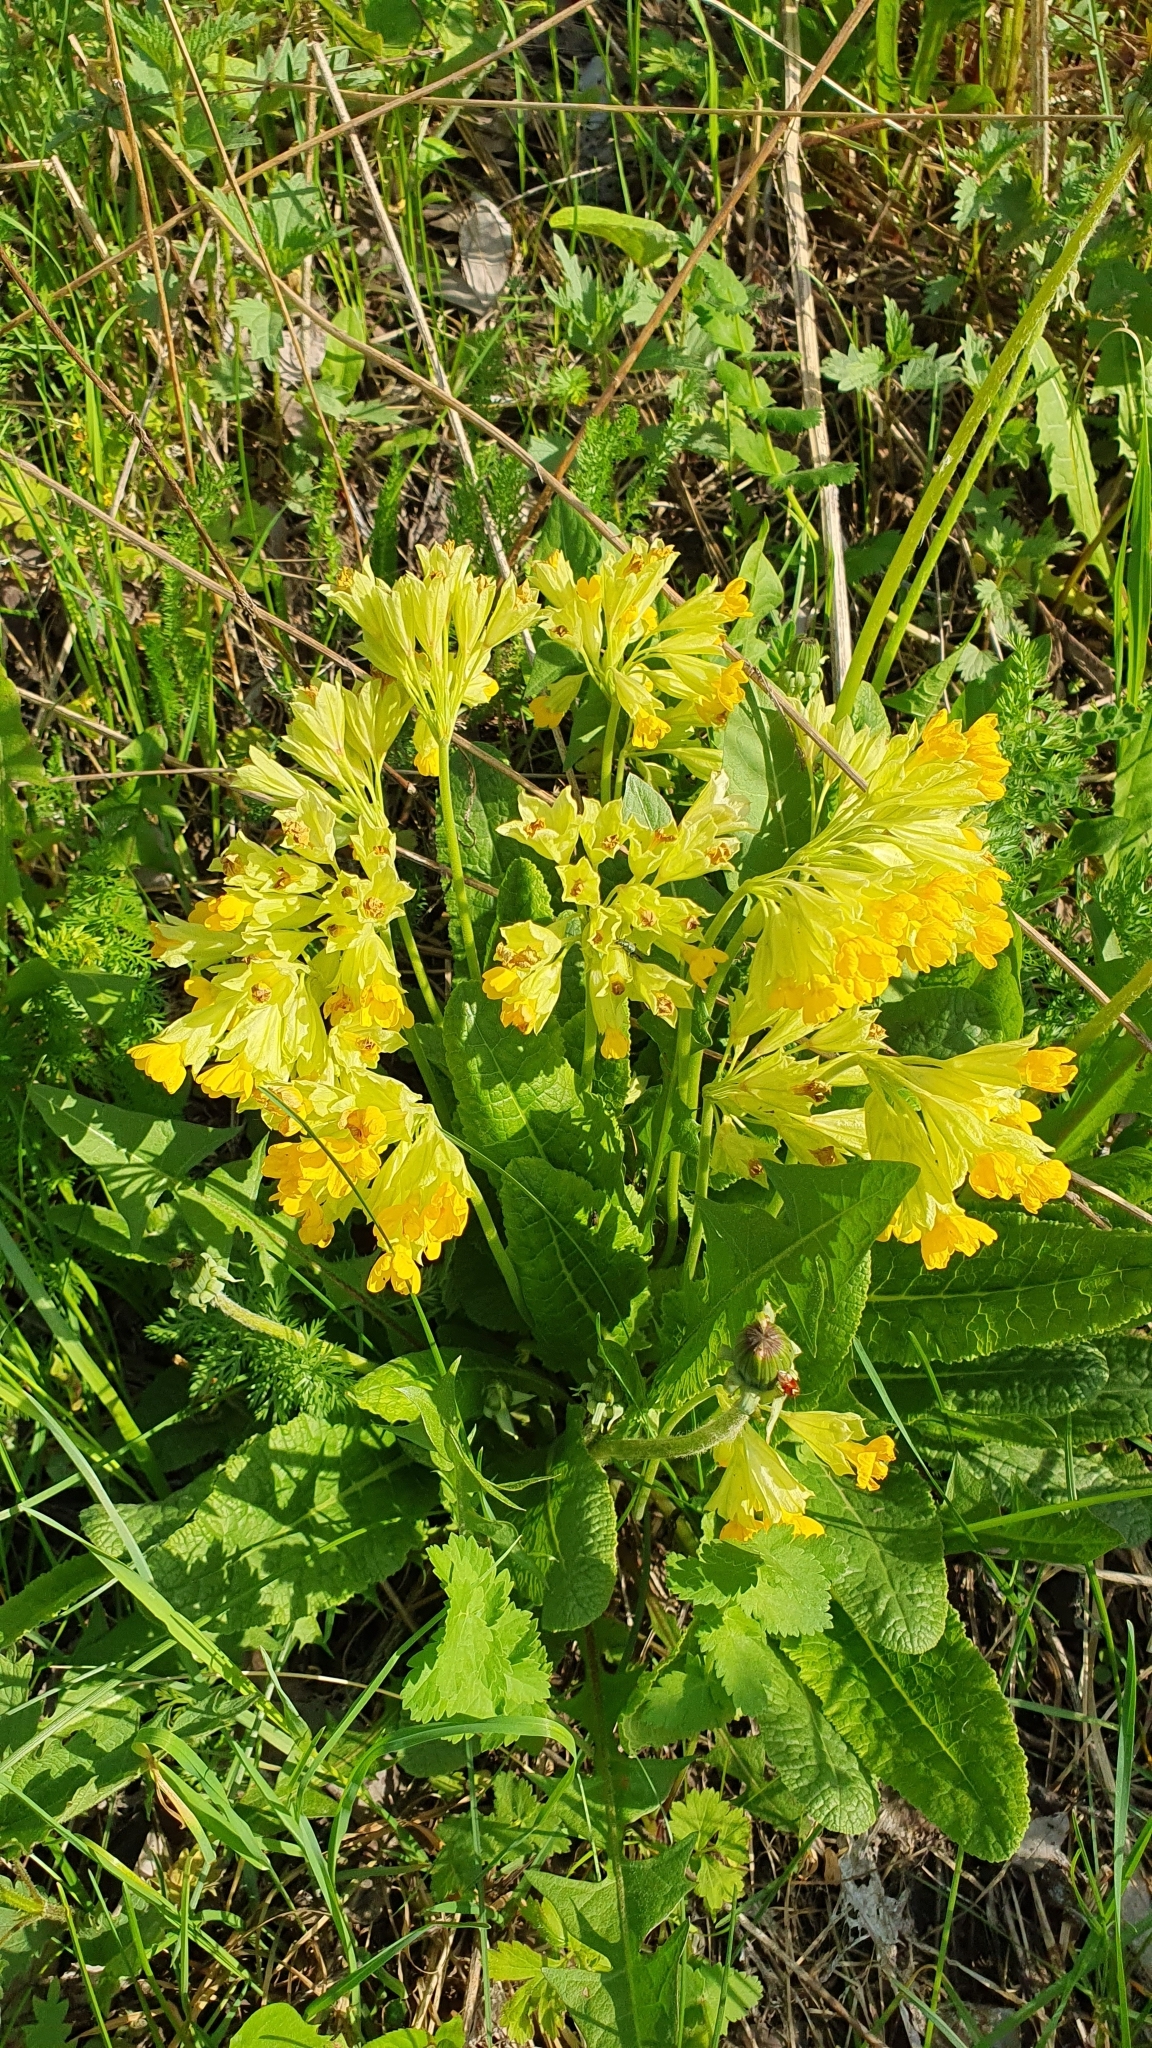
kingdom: Plantae
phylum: Tracheophyta
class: Magnoliopsida
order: Ericales
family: Primulaceae
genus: Primula
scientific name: Primula veris
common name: Cowslip
